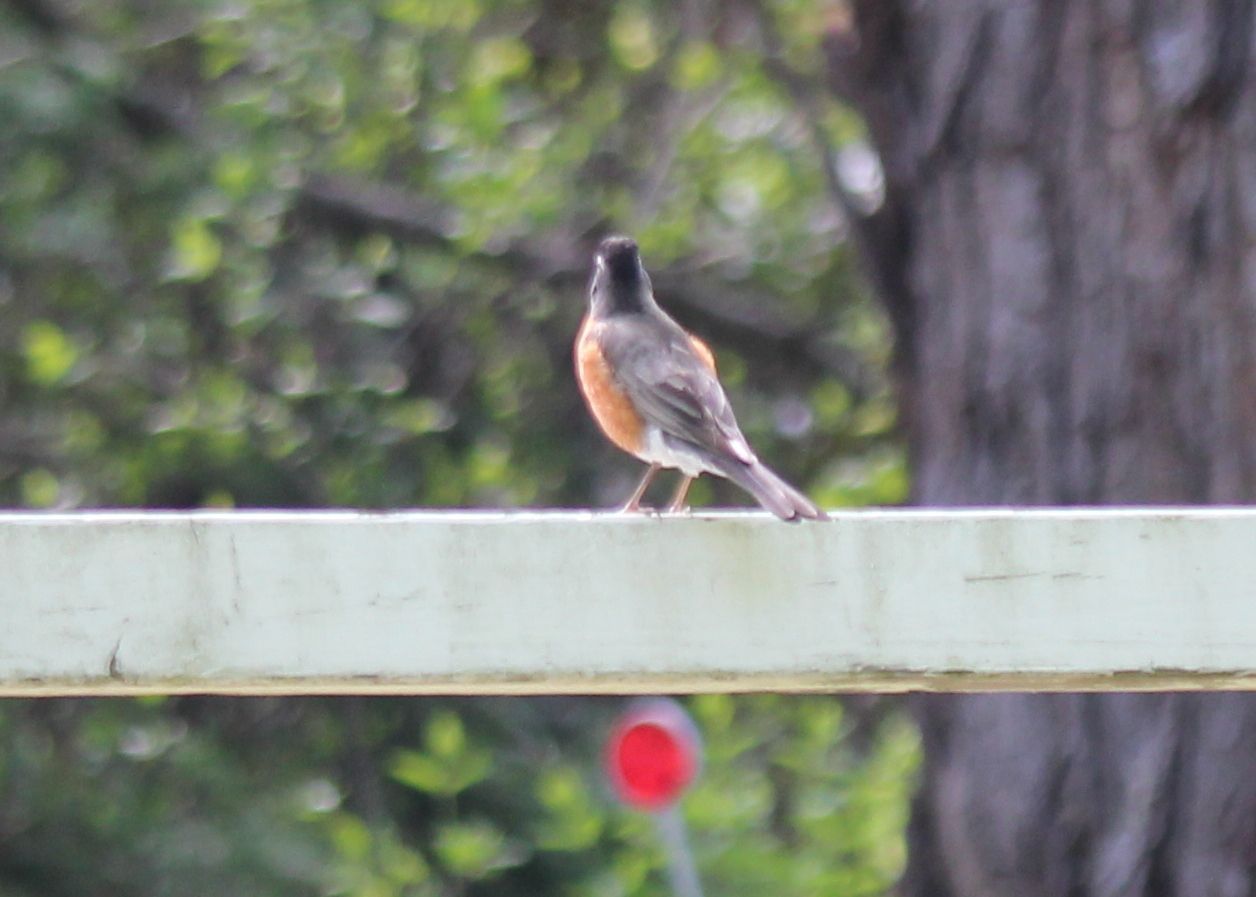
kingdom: Animalia
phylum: Chordata
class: Aves
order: Passeriformes
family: Turdidae
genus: Turdus
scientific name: Turdus migratorius
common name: American robin
